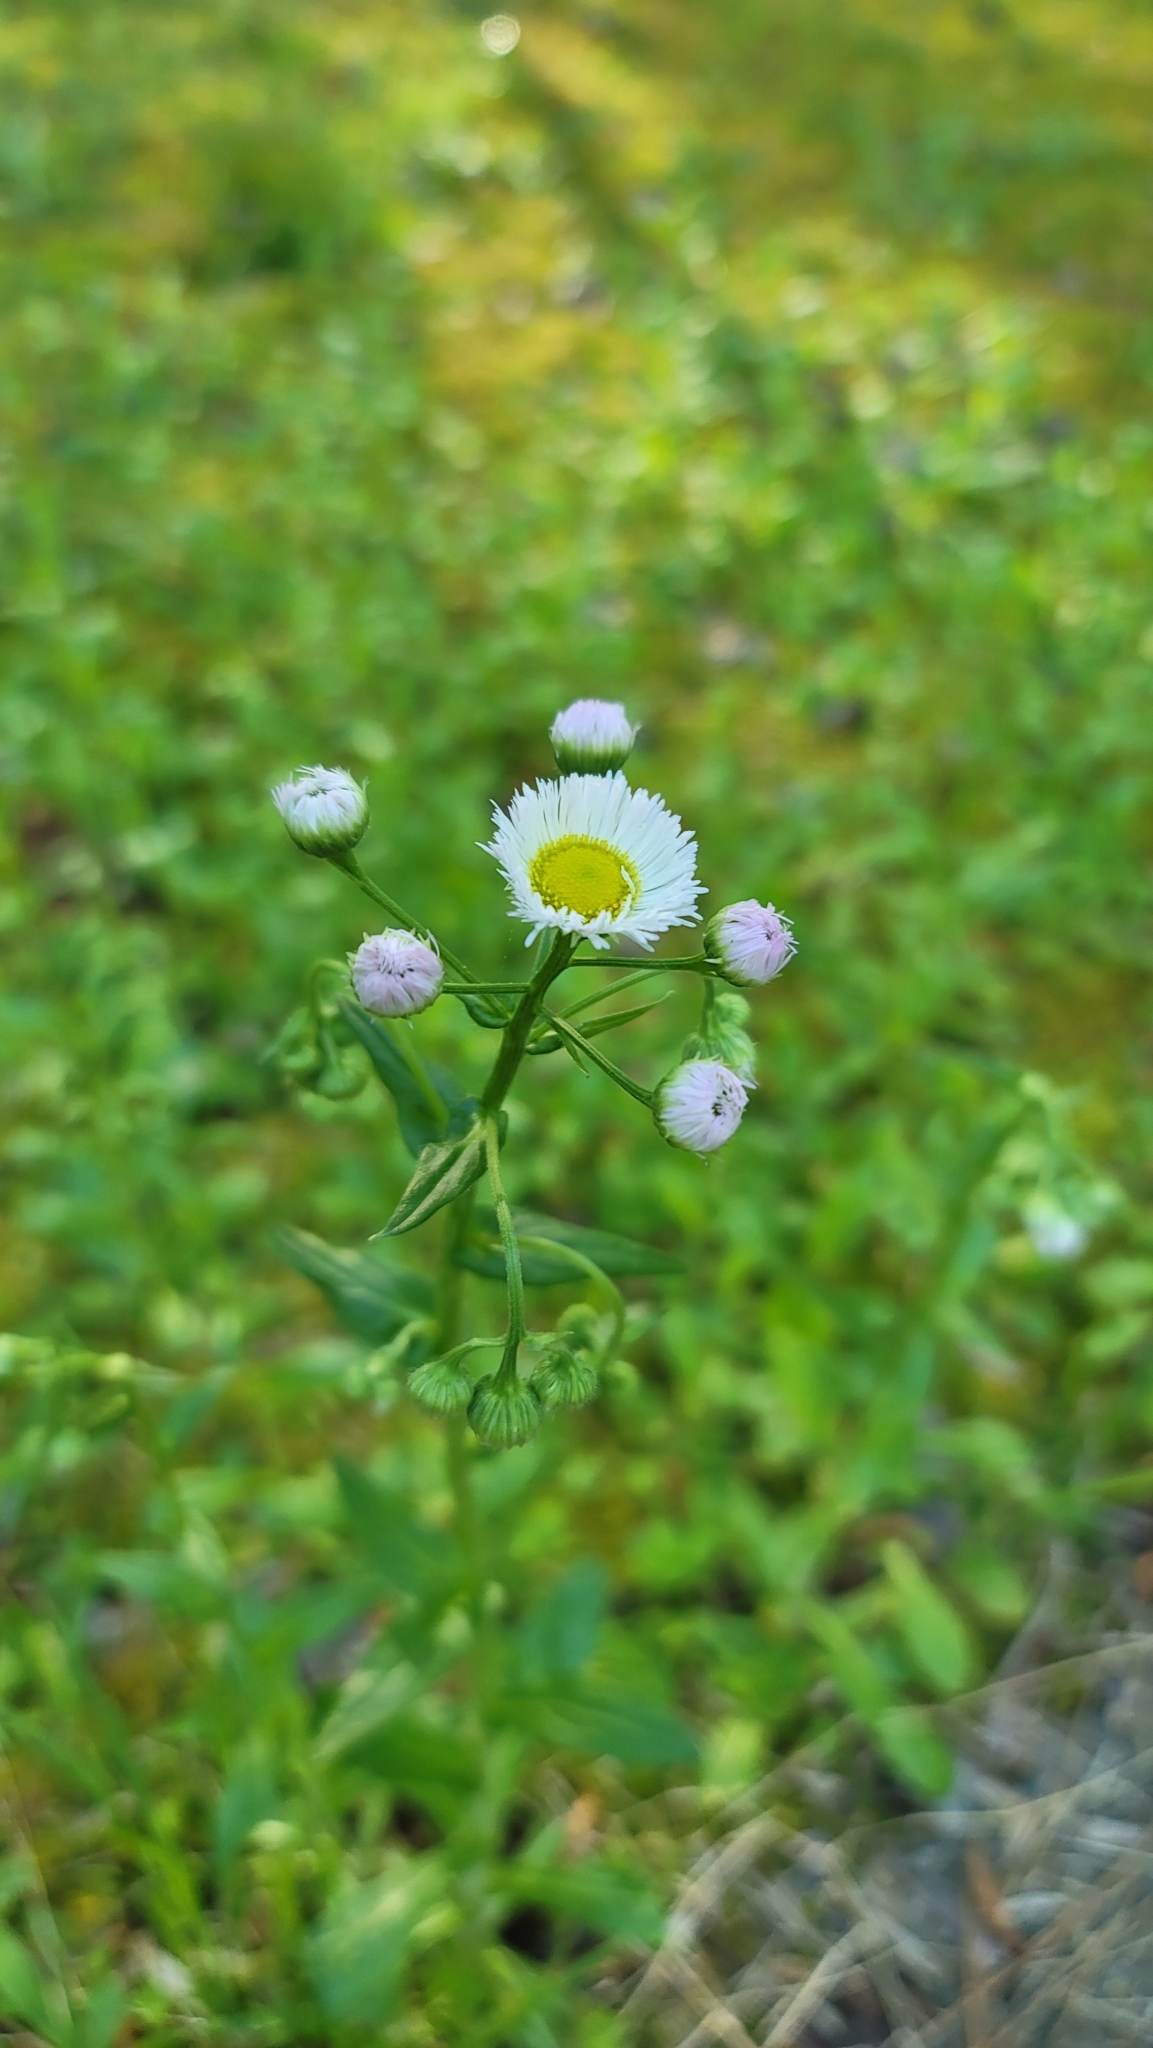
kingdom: Plantae
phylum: Tracheophyta
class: Magnoliopsida
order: Asterales
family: Asteraceae
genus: Erigeron
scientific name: Erigeron philadelphicus
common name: Robin's-plantain
